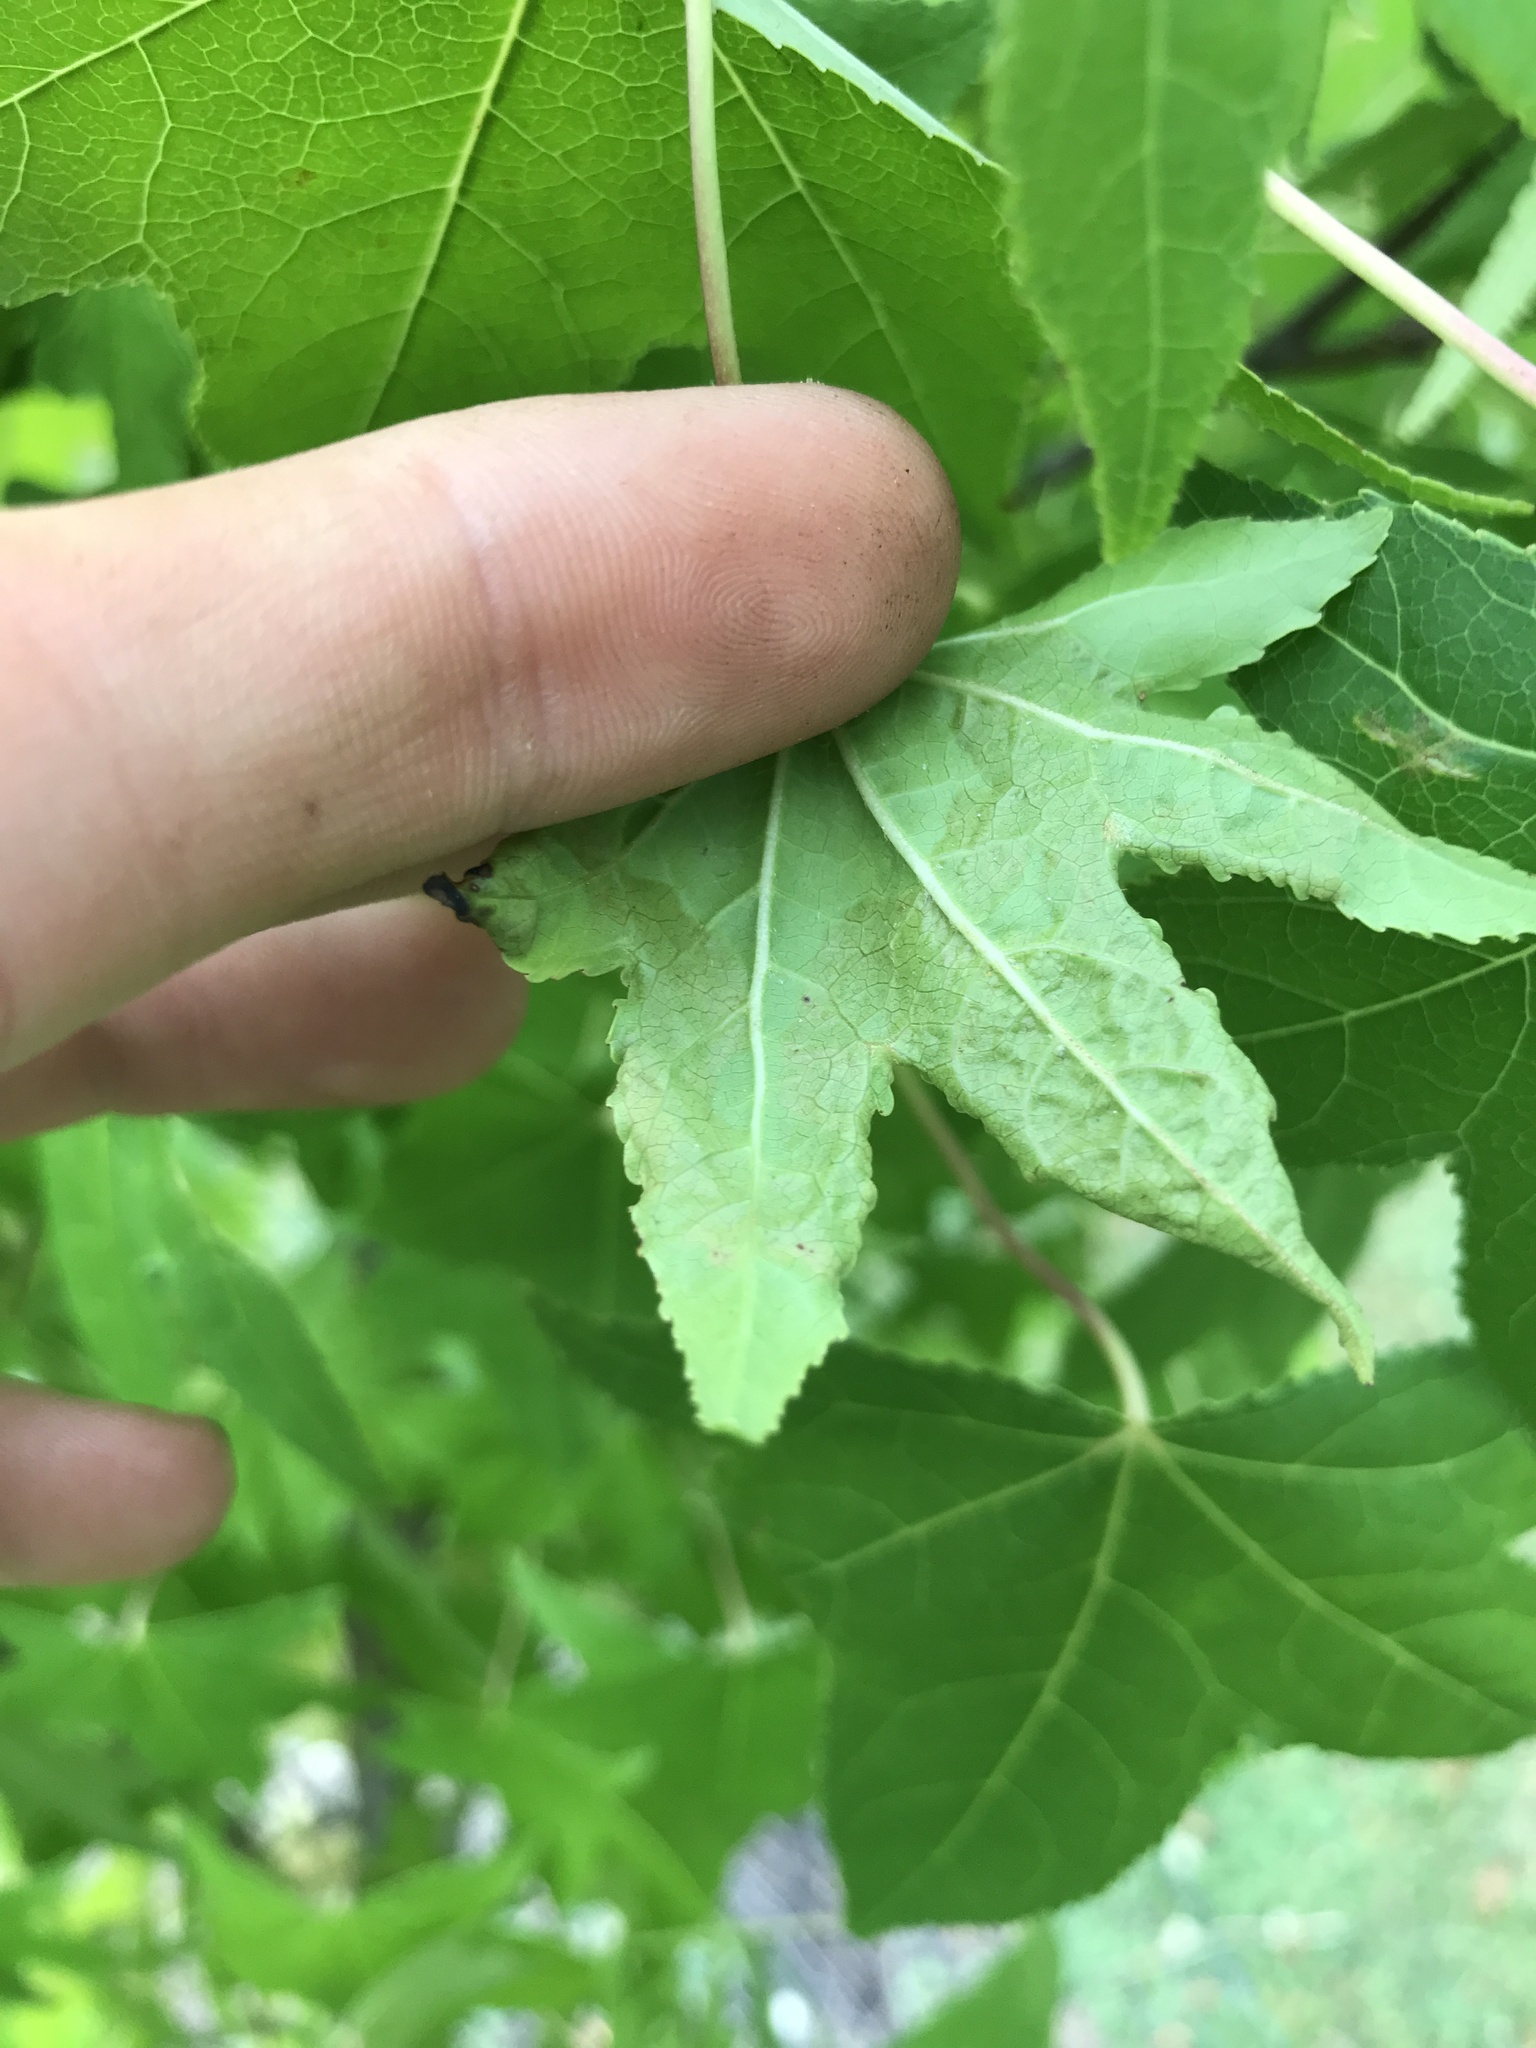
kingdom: Animalia
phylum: Arthropoda
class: Insecta
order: Lepidoptera
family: Gracillariidae
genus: Phyllocnistis
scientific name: Phyllocnistis liquidambarisella
